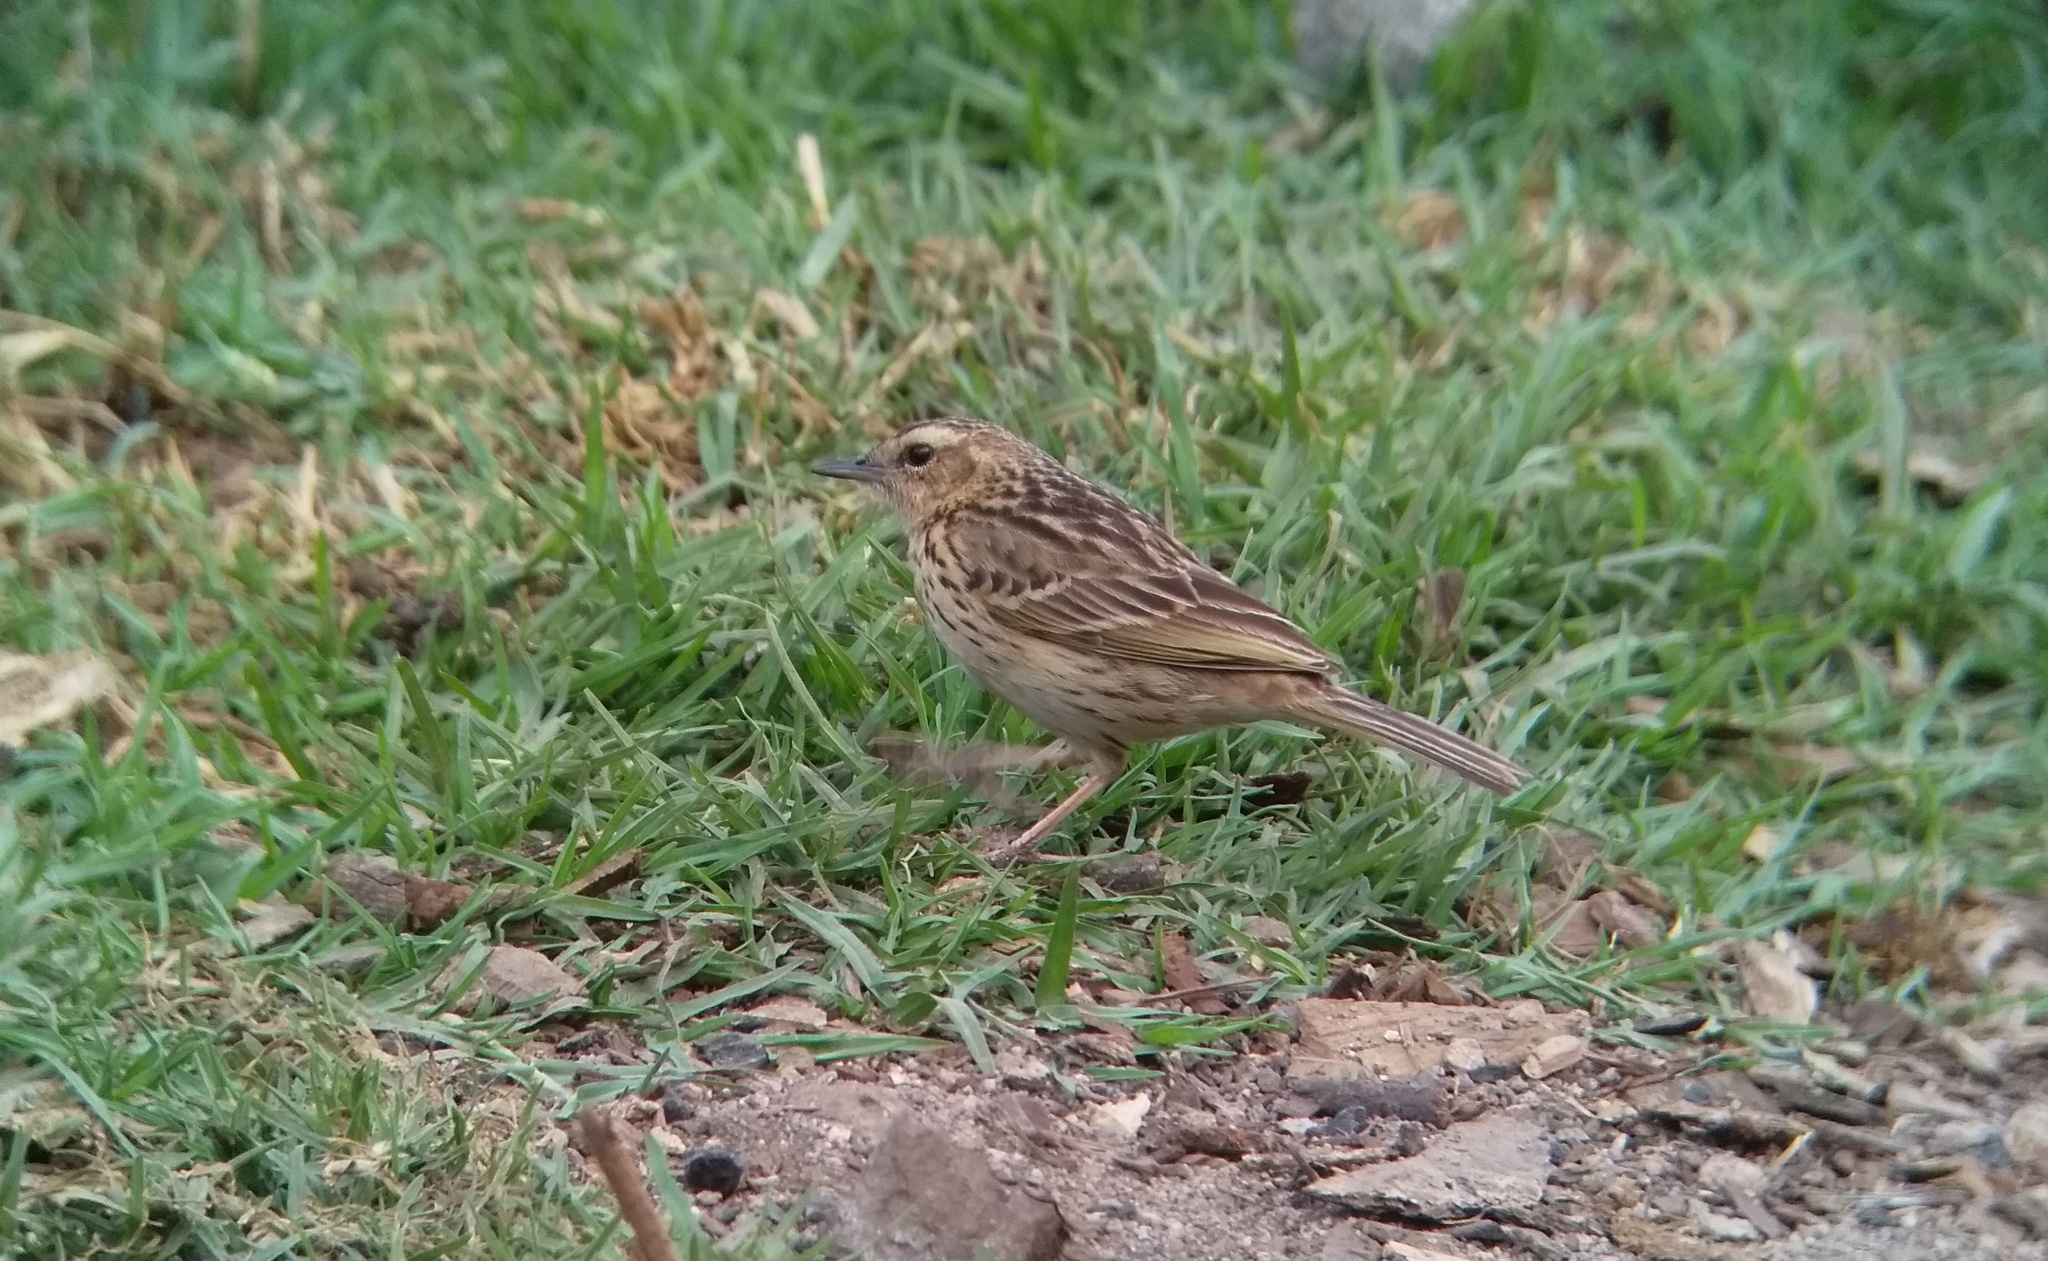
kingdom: Animalia
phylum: Chordata
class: Aves
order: Passeriformes
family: Motacillidae
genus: Anthus
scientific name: Anthus nilghiriensis
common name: Nilgiri pipit
